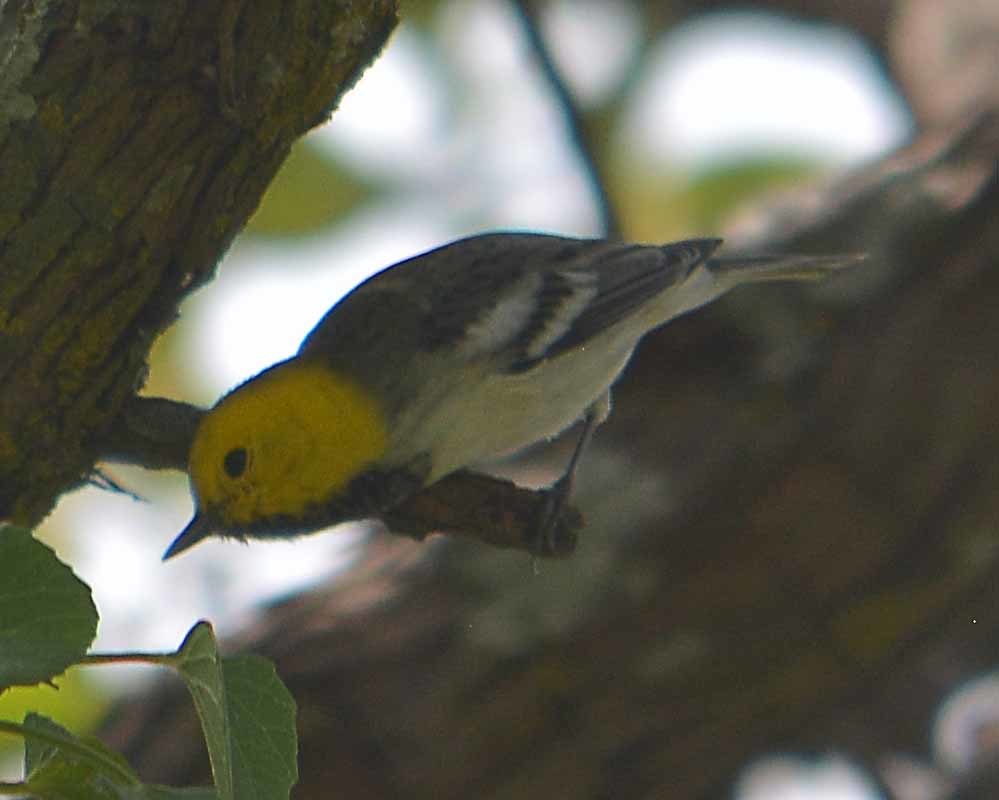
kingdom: Animalia
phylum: Chordata
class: Aves
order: Passeriformes
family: Parulidae
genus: Setophaga
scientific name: Setophaga occidentalis
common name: Hermit warbler
